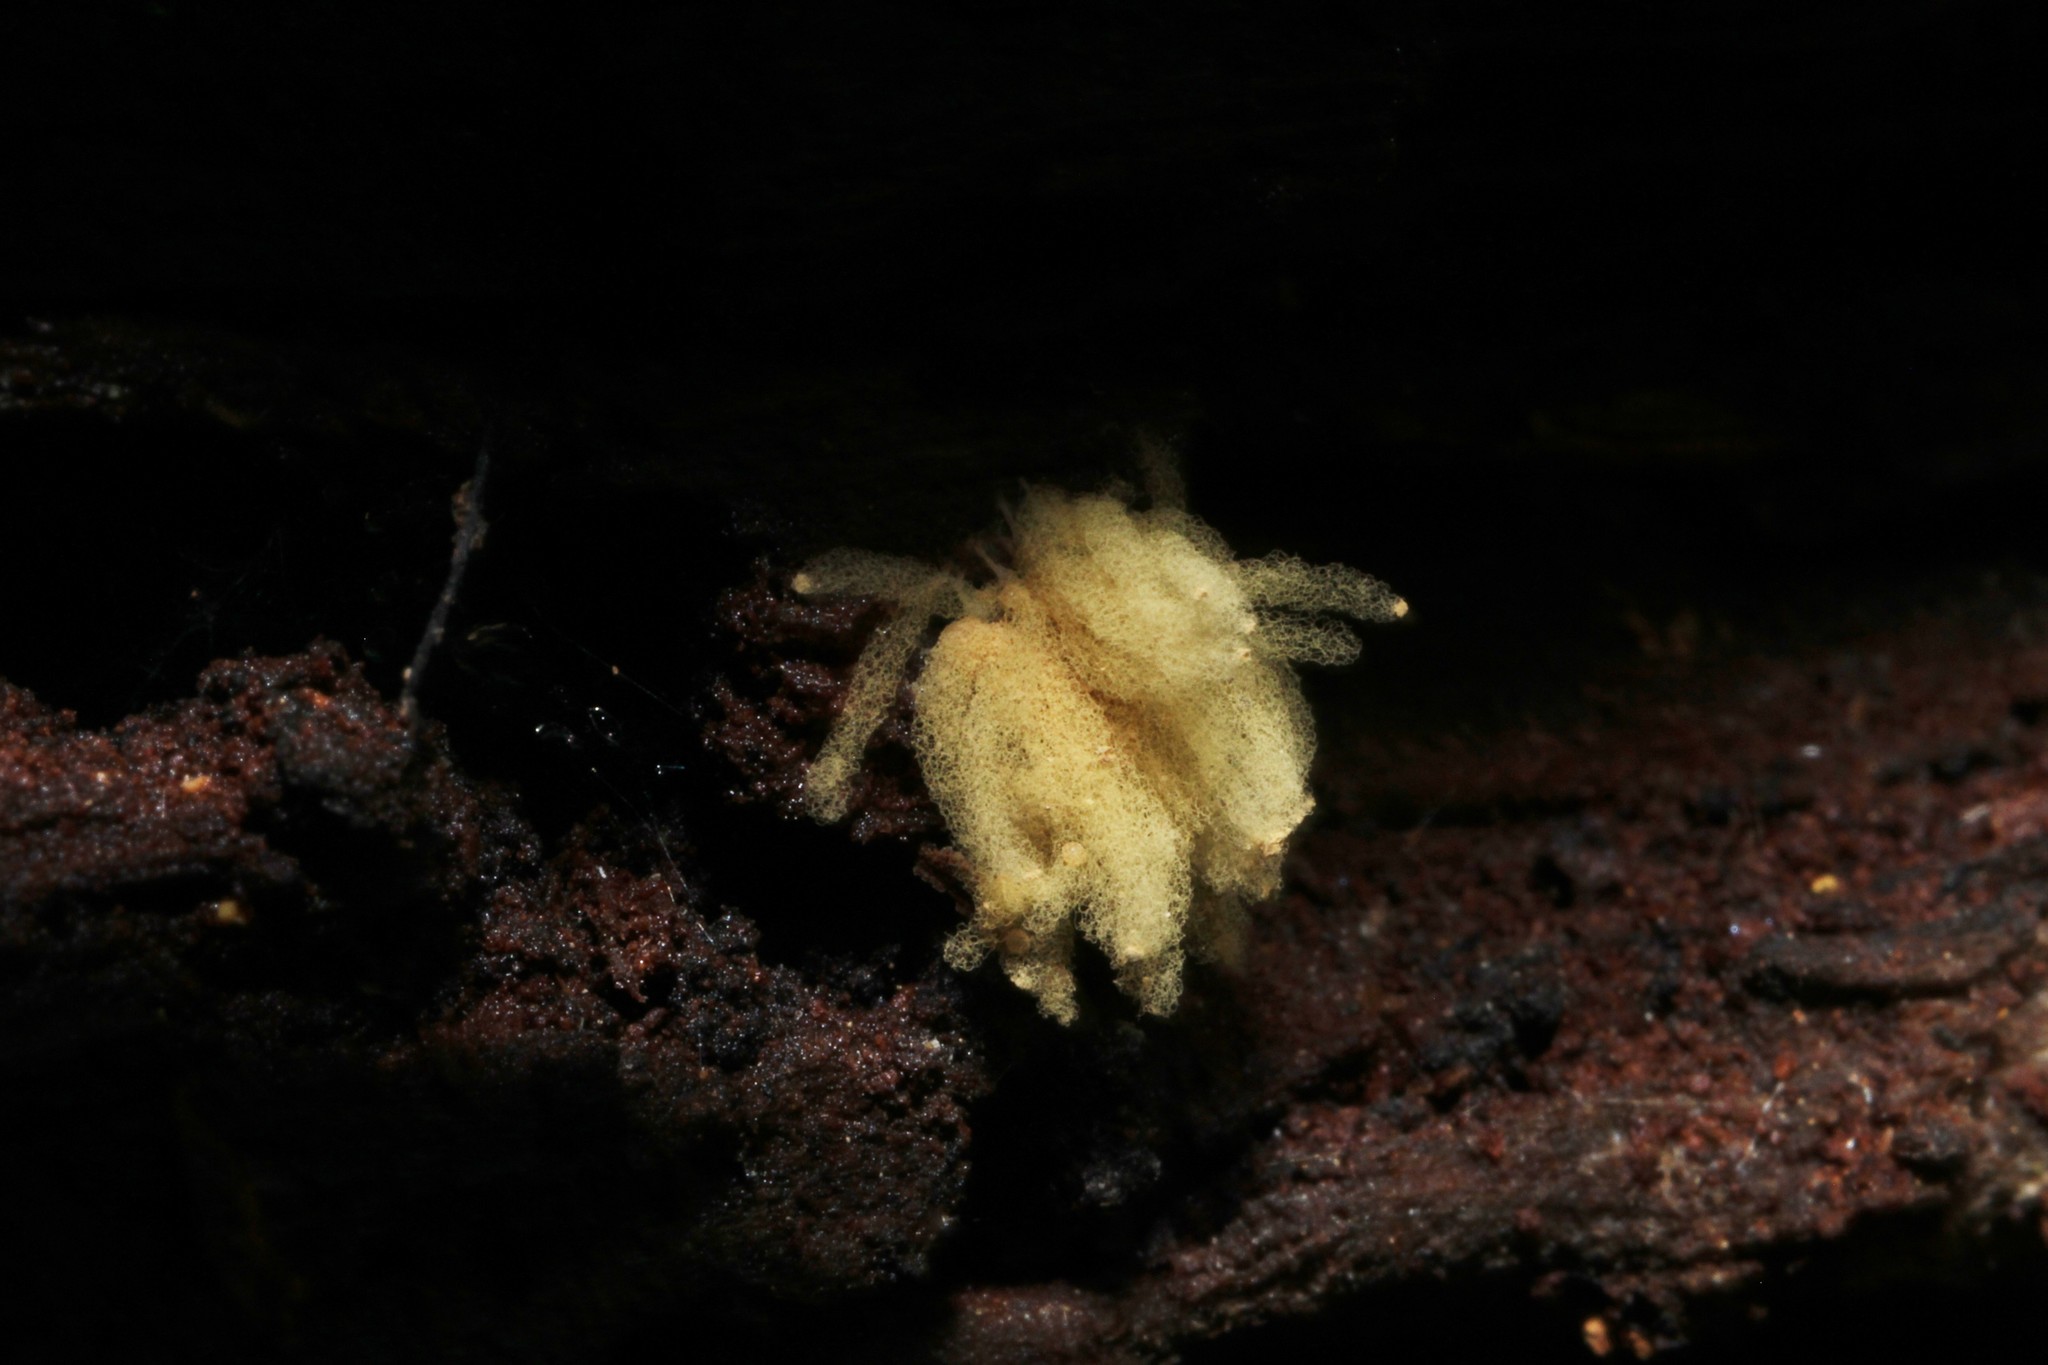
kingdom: Protozoa
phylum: Mycetozoa
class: Myxomycetes
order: Trichiales
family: Arcyriaceae
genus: Arcyria
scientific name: Arcyria obvelata
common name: Yellow carnival candy slime
